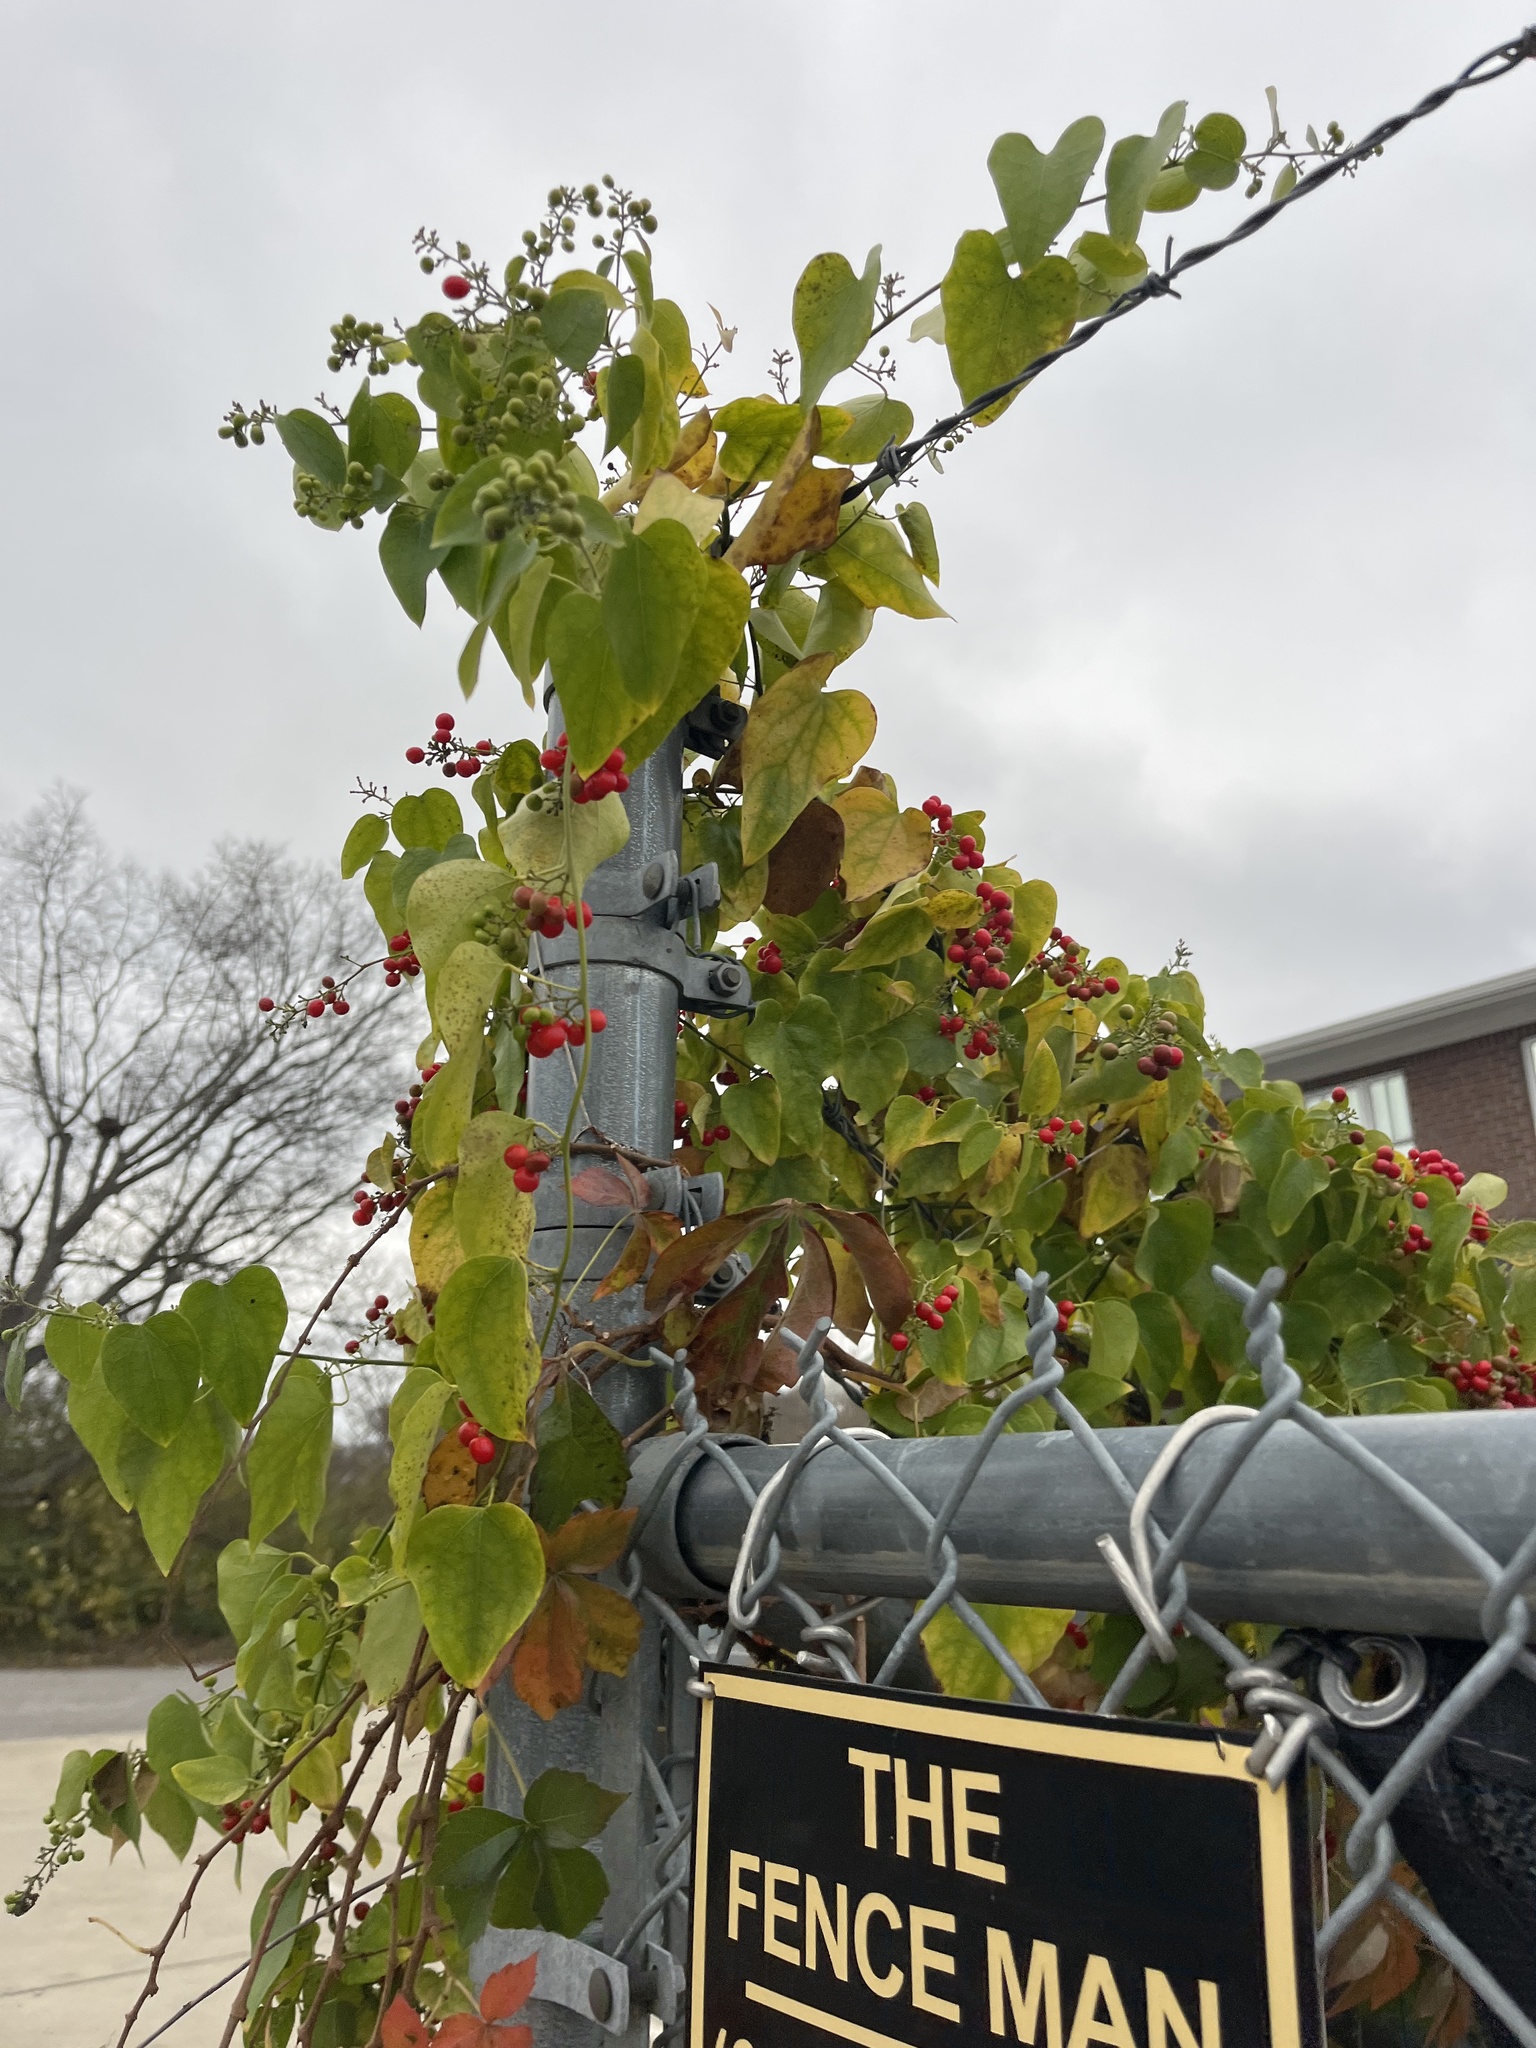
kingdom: Plantae
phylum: Tracheophyta
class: Magnoliopsida
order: Ranunculales
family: Menispermaceae
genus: Cocculus
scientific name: Cocculus carolinus
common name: Carolina moonseed
